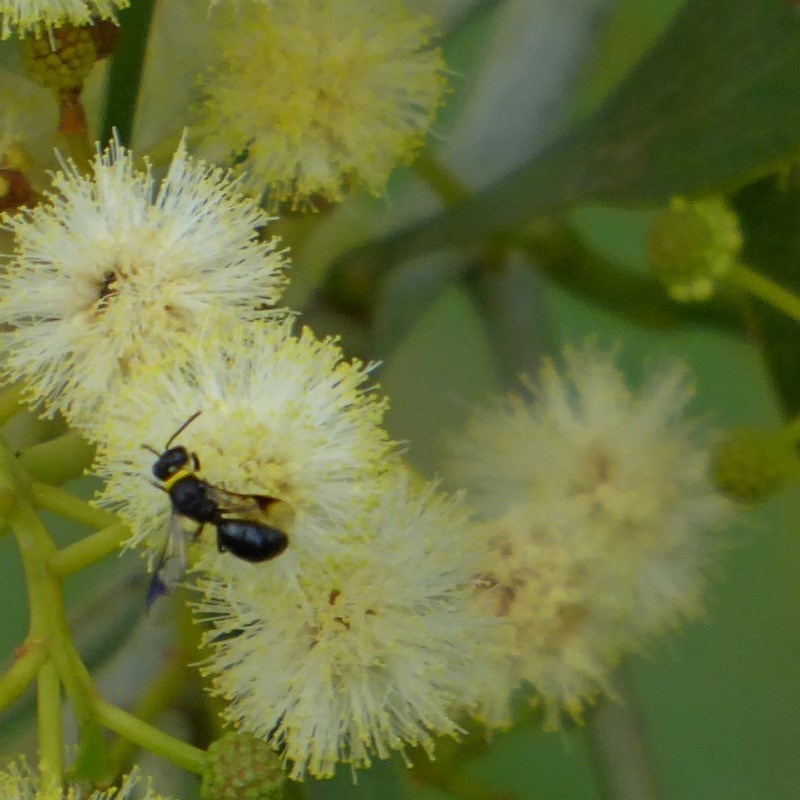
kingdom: Animalia
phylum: Arthropoda
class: Insecta
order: Hymenoptera
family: Colletidae
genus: Hylaeus
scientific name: Hylaeus primulipictus
